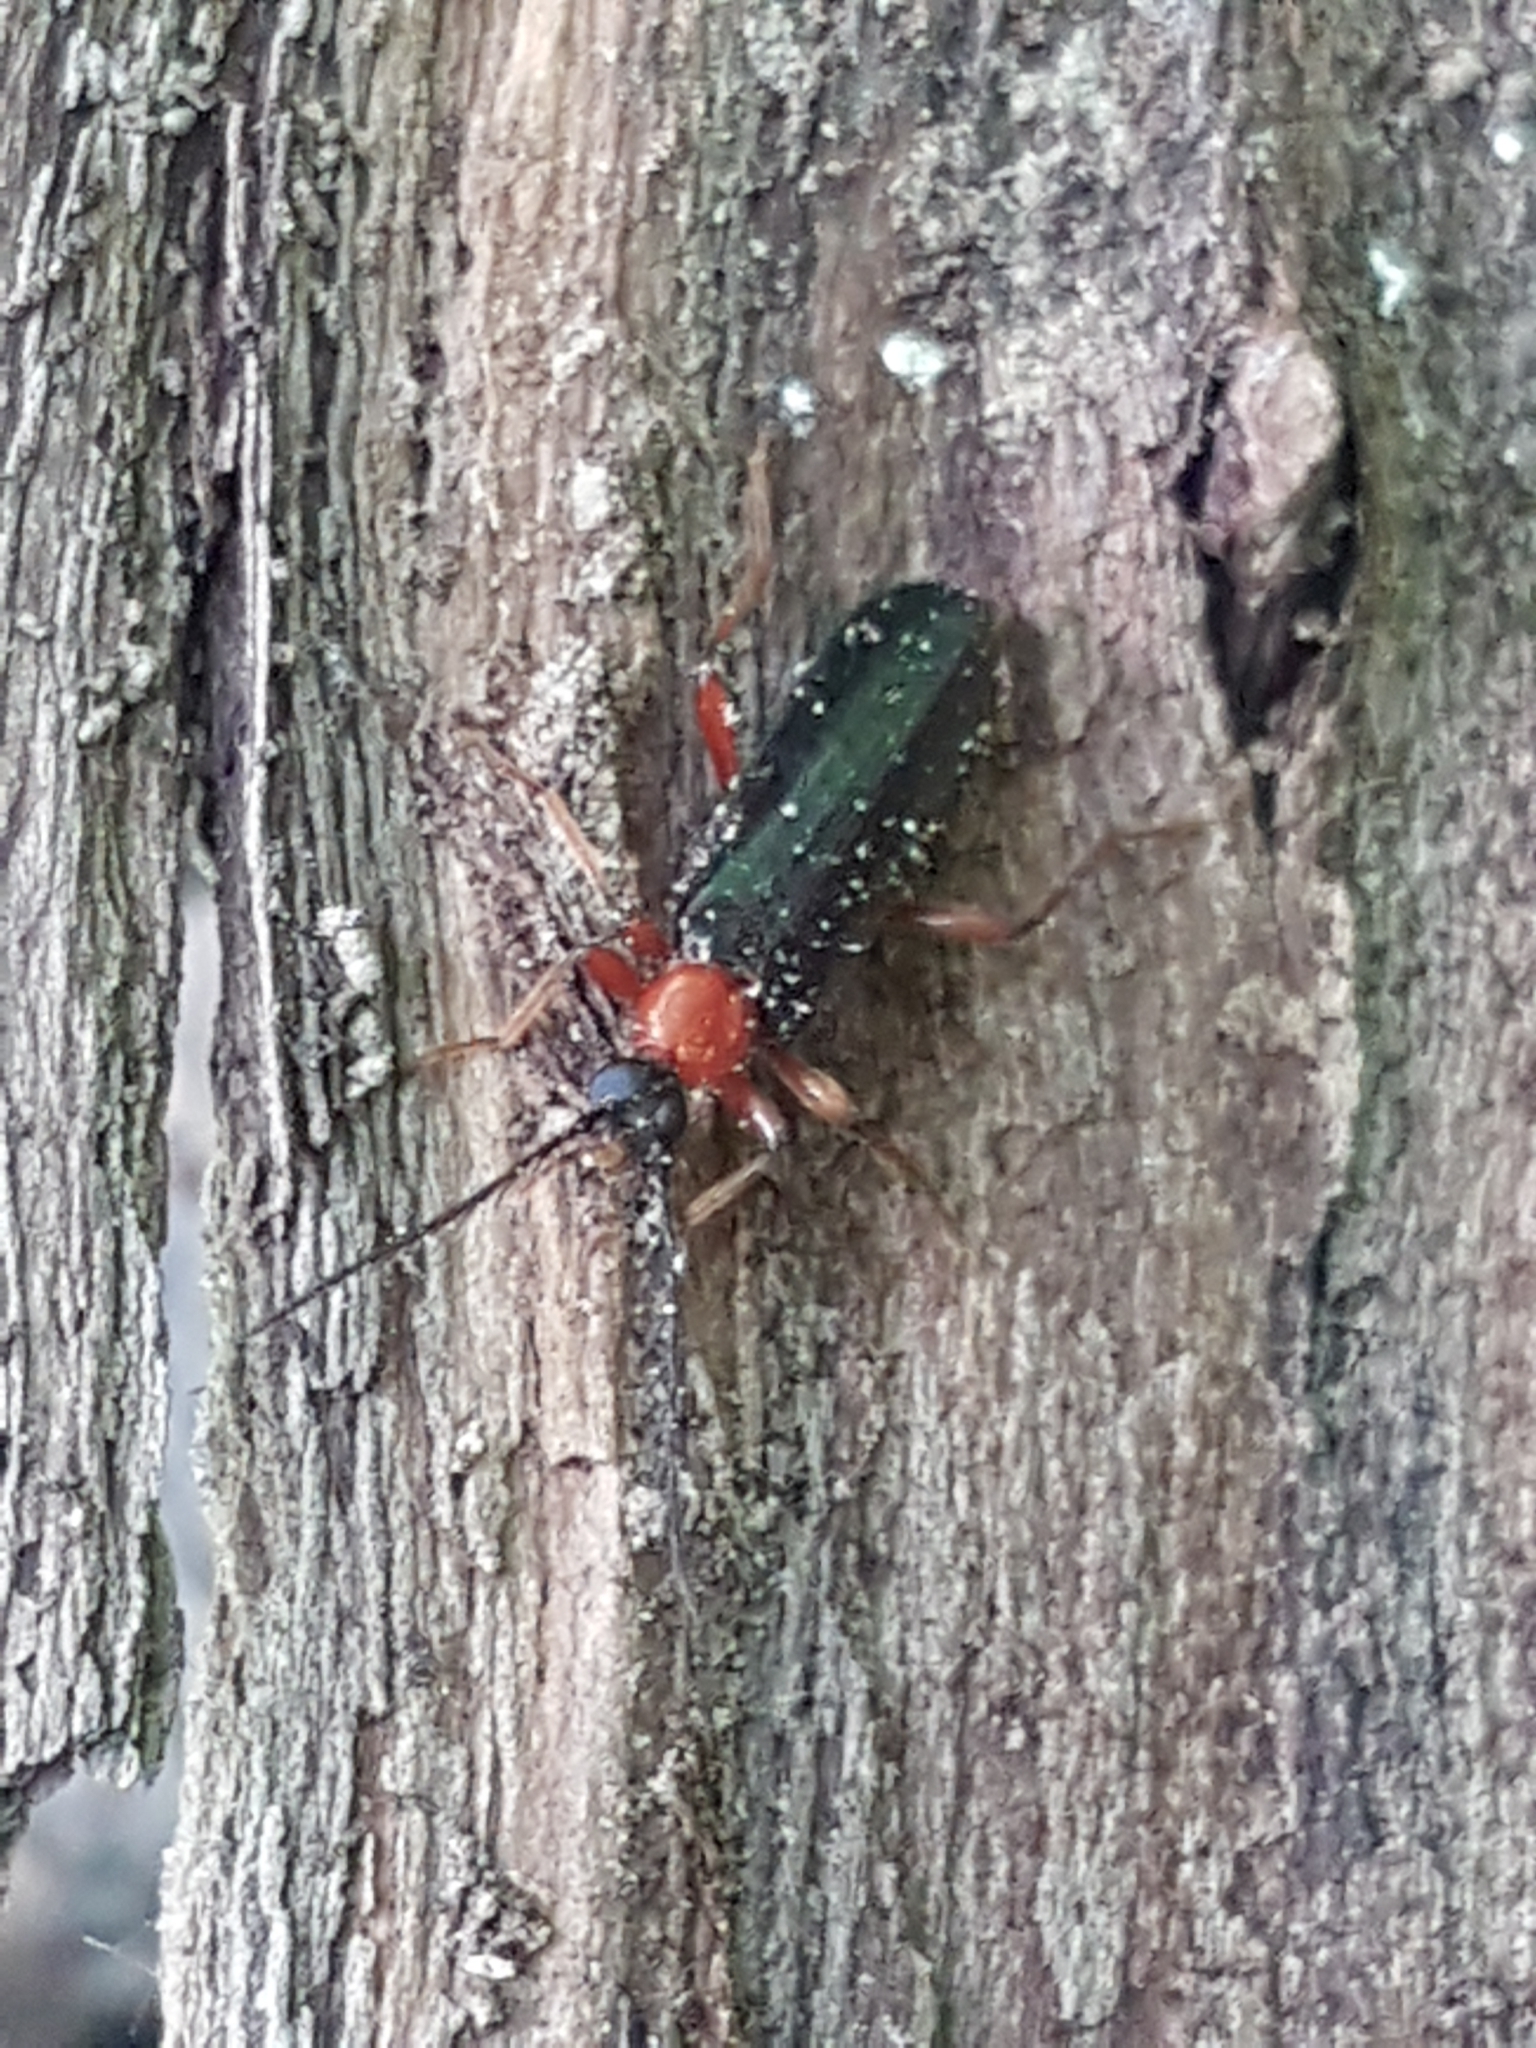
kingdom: Animalia
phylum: Arthropoda
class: Insecta
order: Coleoptera
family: Pyrochroidae
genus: Dendroides
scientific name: Dendroides canadensis
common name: Canada fire-colored beetle
